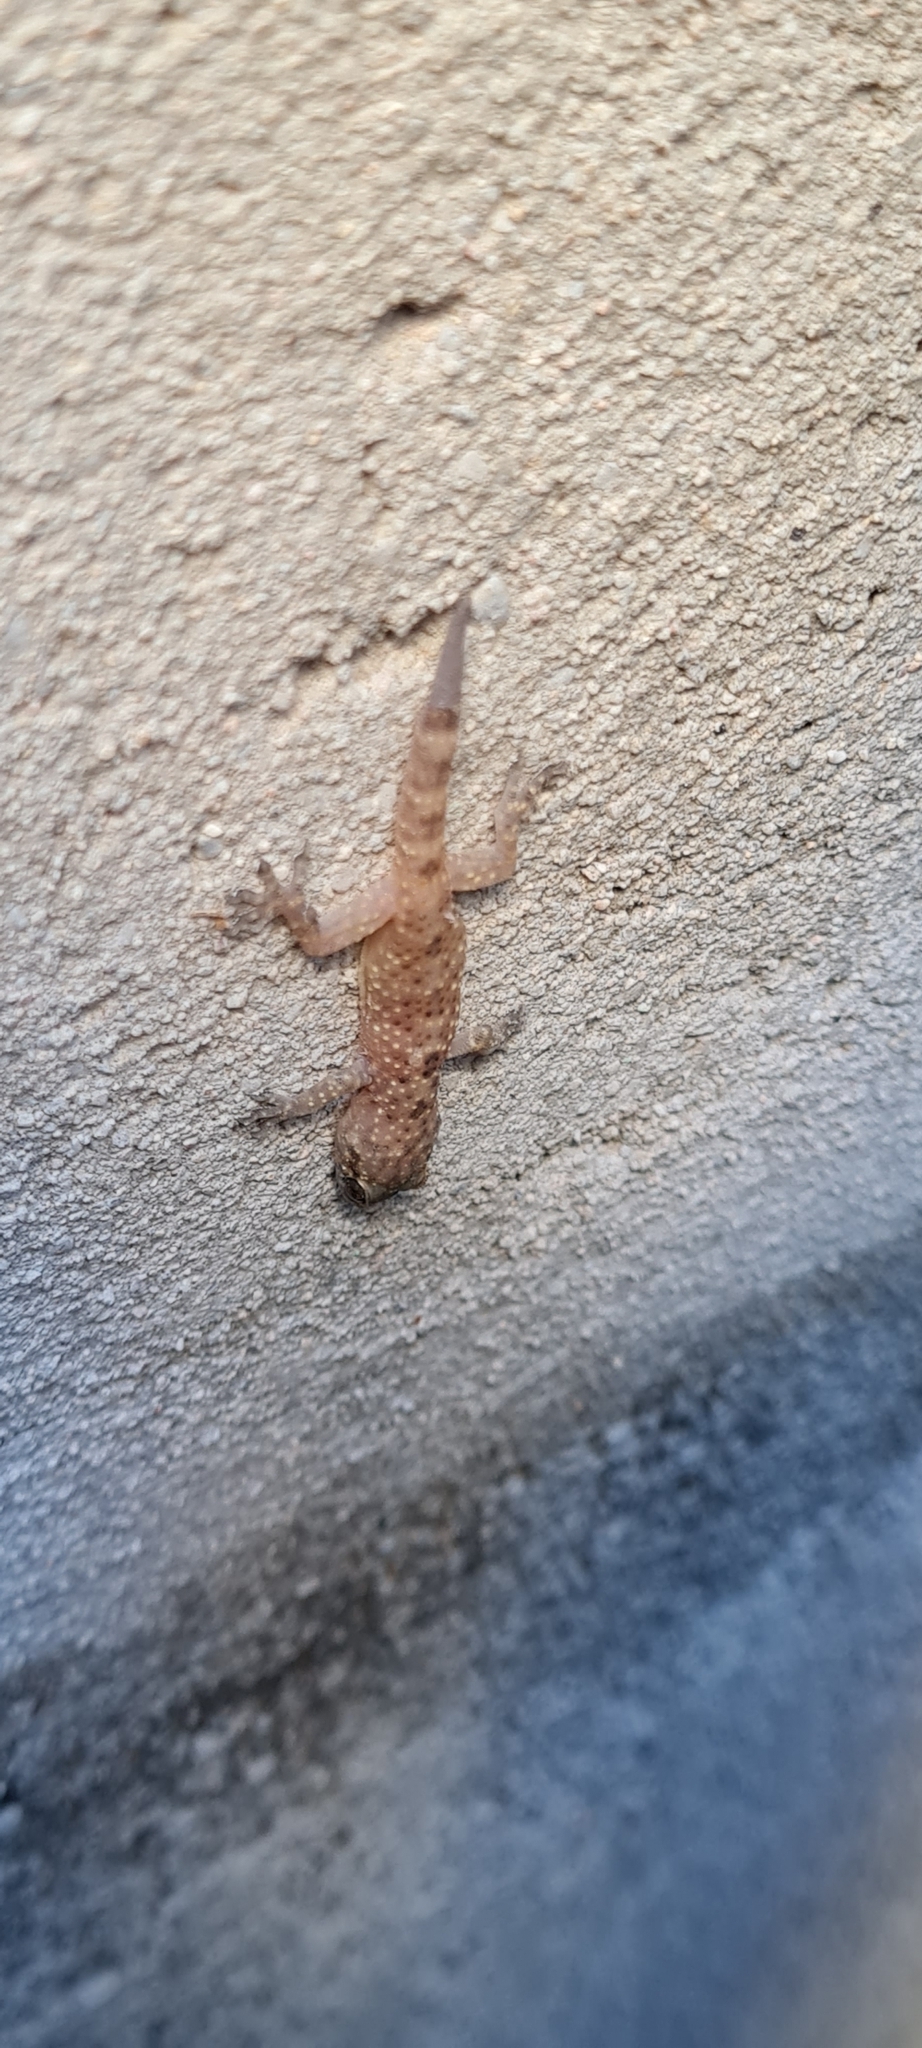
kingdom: Animalia
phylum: Chordata
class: Squamata
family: Gekkonidae
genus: Hemidactylus
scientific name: Hemidactylus turcicus
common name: Turkish gecko
